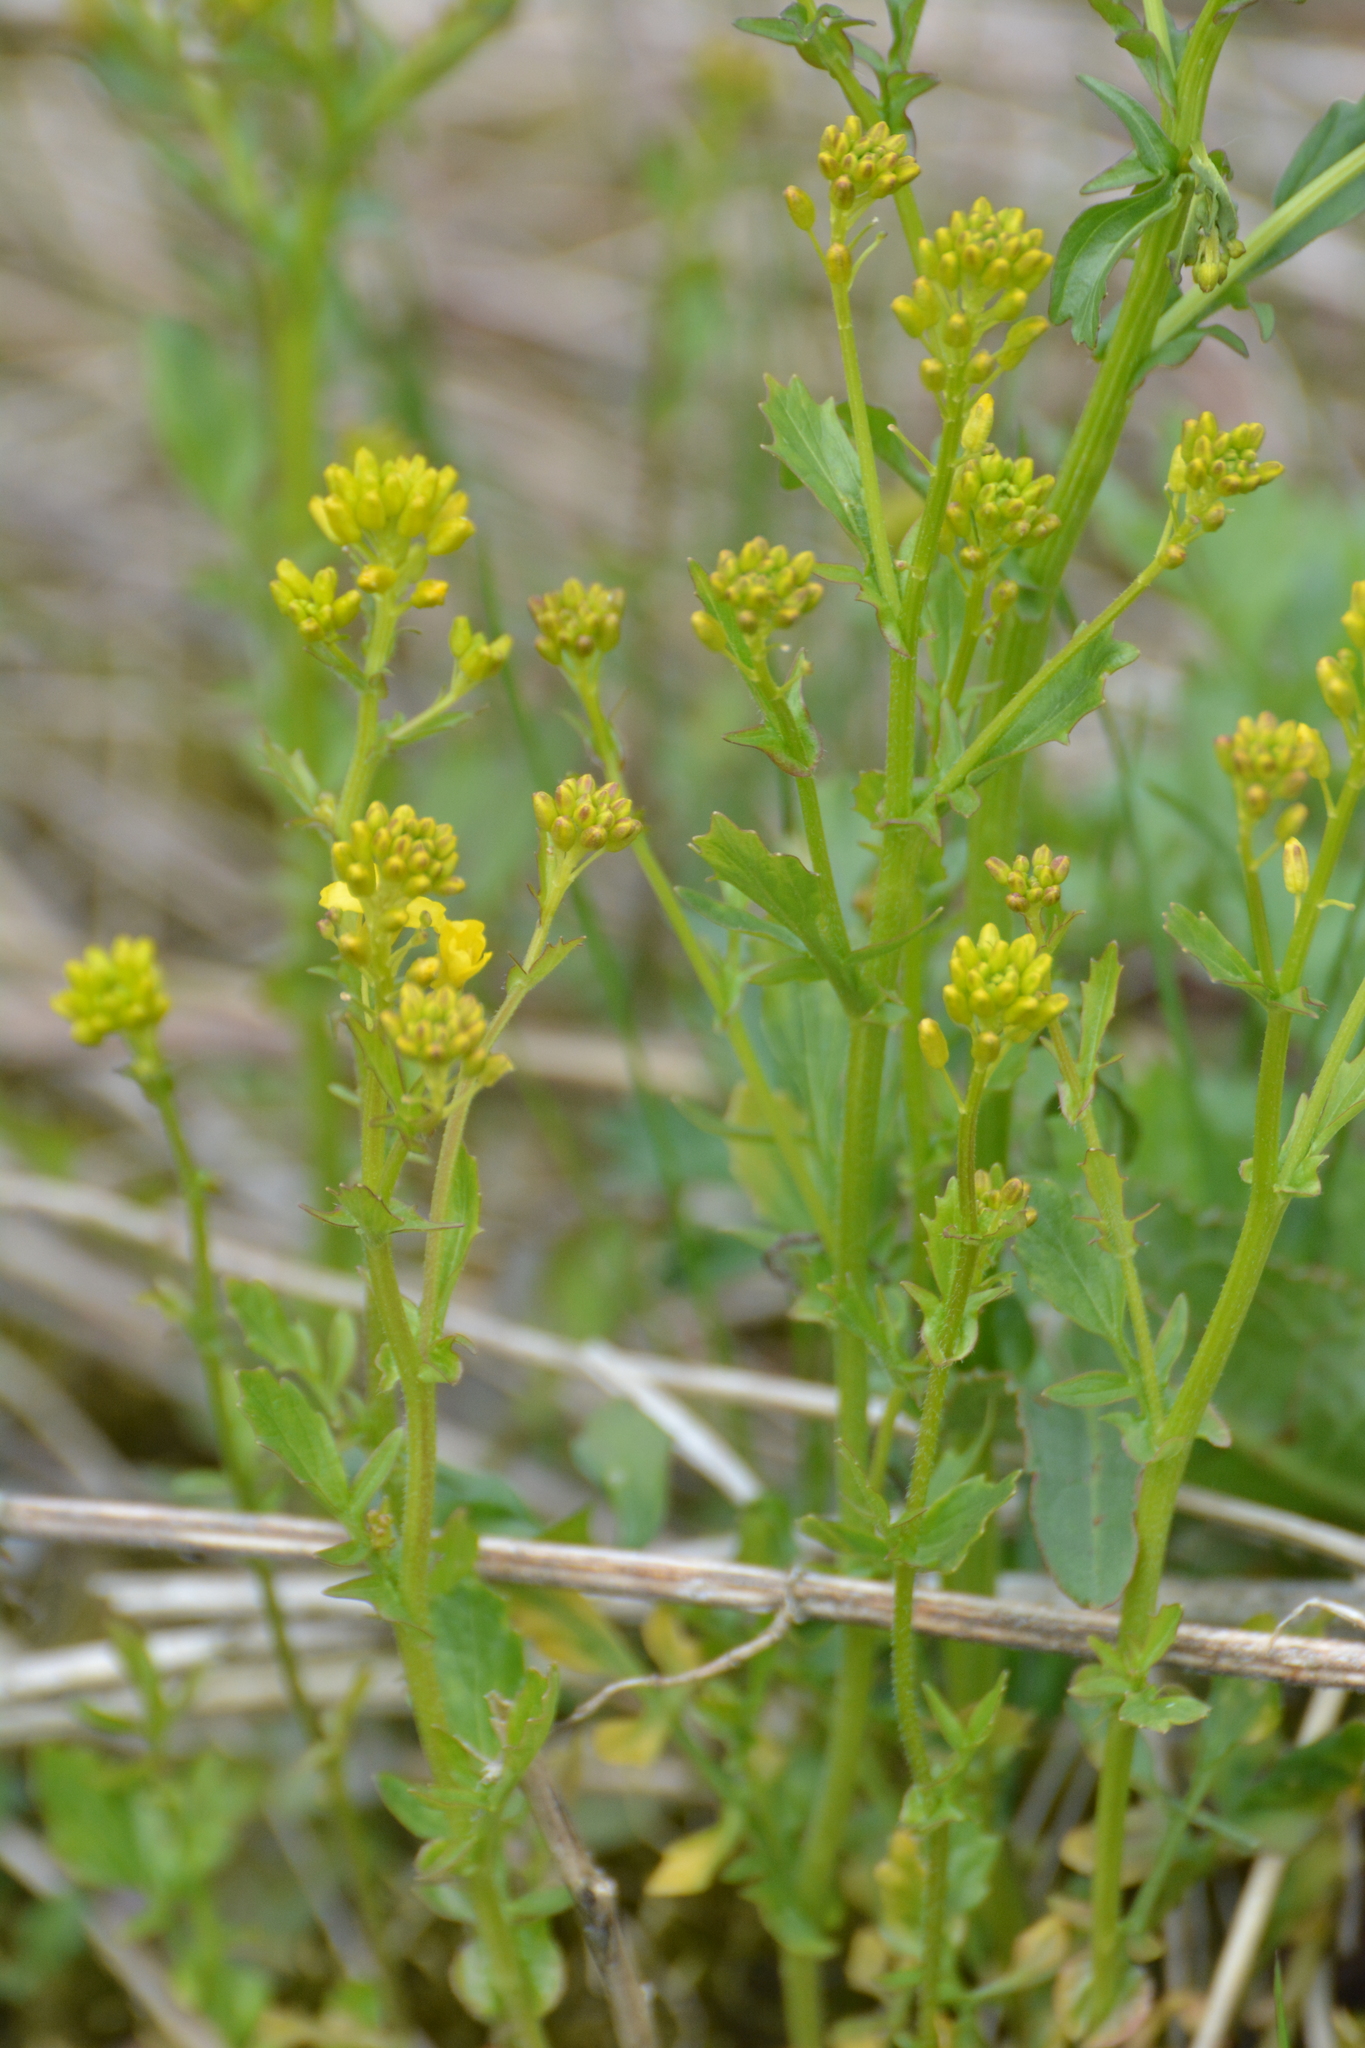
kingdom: Plantae
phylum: Tracheophyta
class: Magnoliopsida
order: Brassicales
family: Brassicaceae
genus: Barbarea
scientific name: Barbarea vulgaris
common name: Cressy-greens
